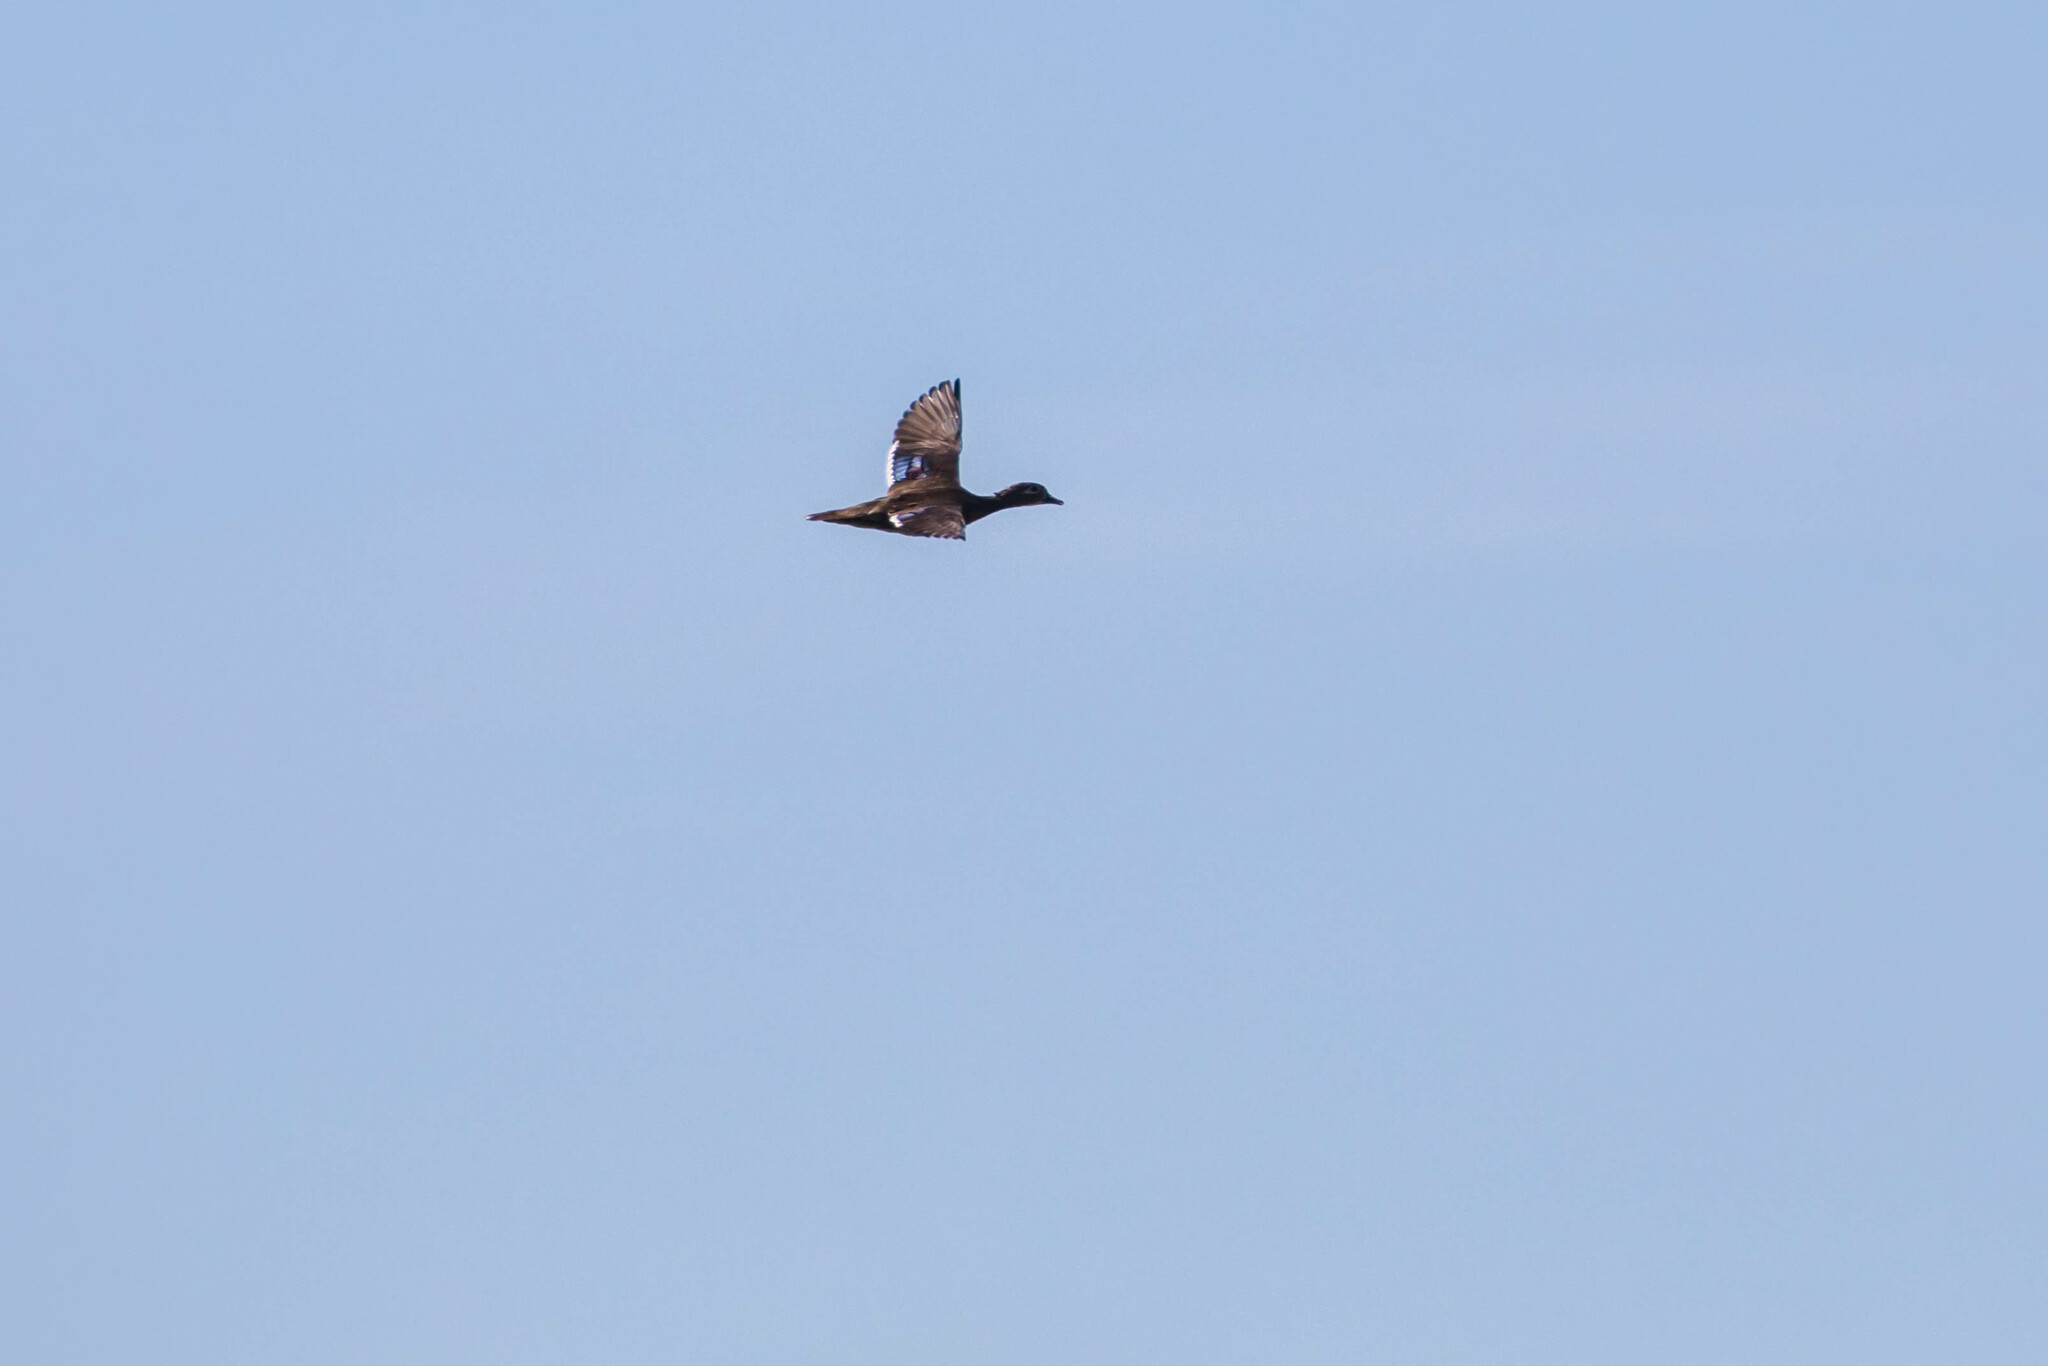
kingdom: Animalia
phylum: Chordata
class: Aves
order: Anseriformes
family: Anatidae
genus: Aix
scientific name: Aix sponsa
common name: Wood duck
